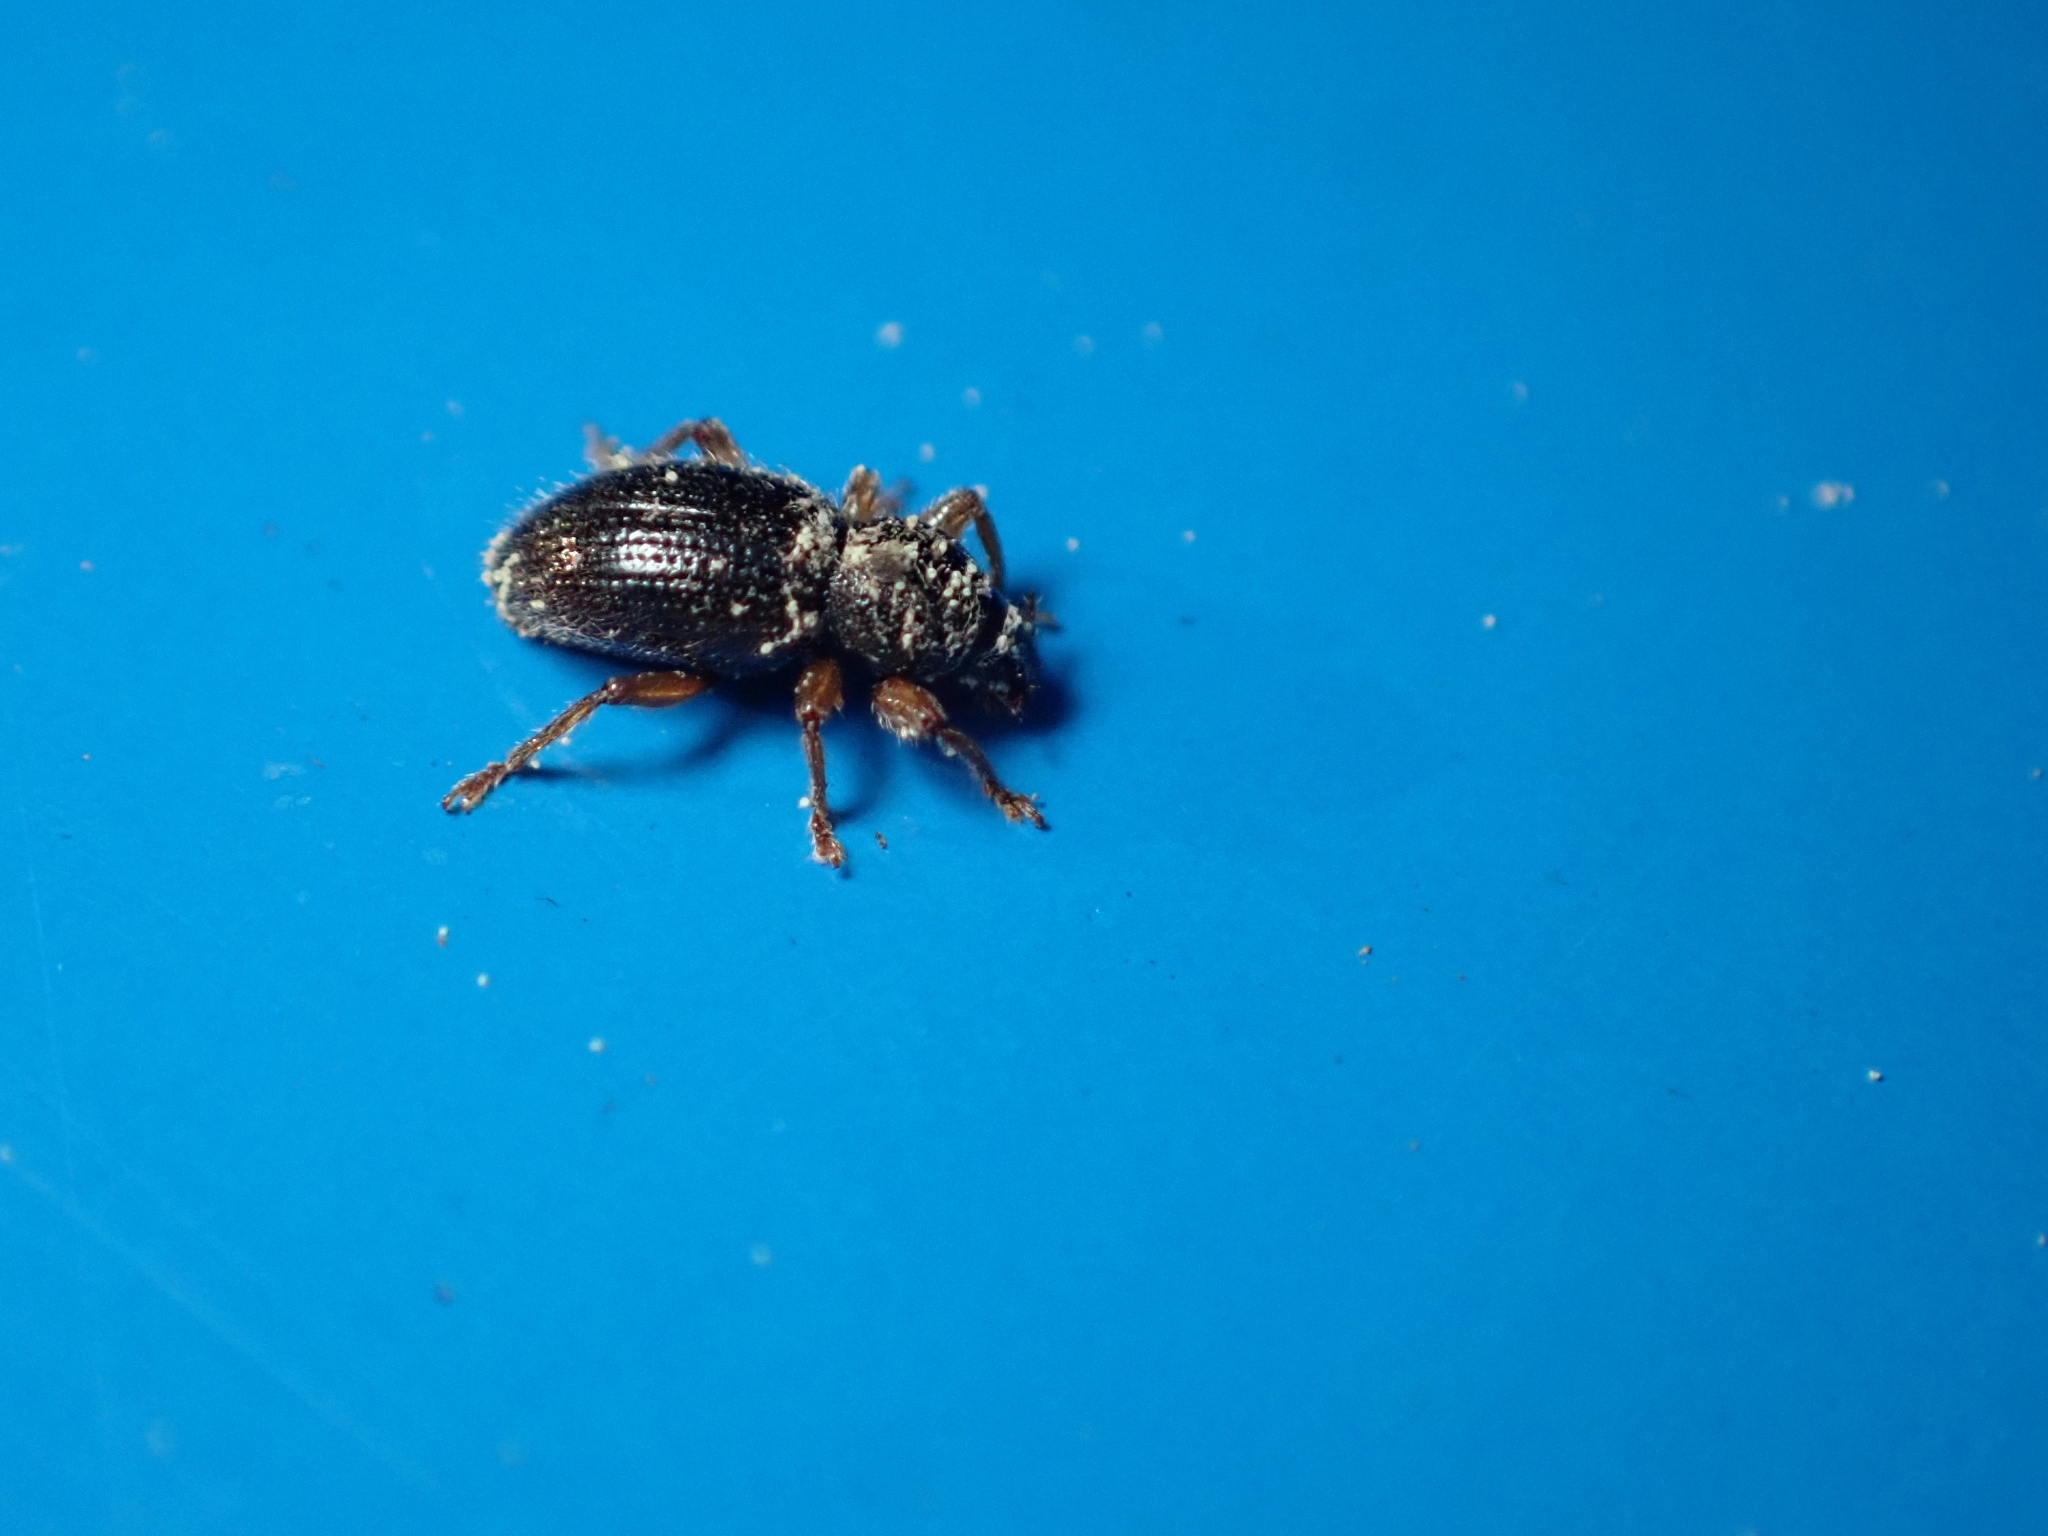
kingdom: Animalia
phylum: Arthropoda
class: Insecta
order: Coleoptera
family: Curculionidae
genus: Exomias
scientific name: Exomias pellucidus
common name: Hairy spider weevil
